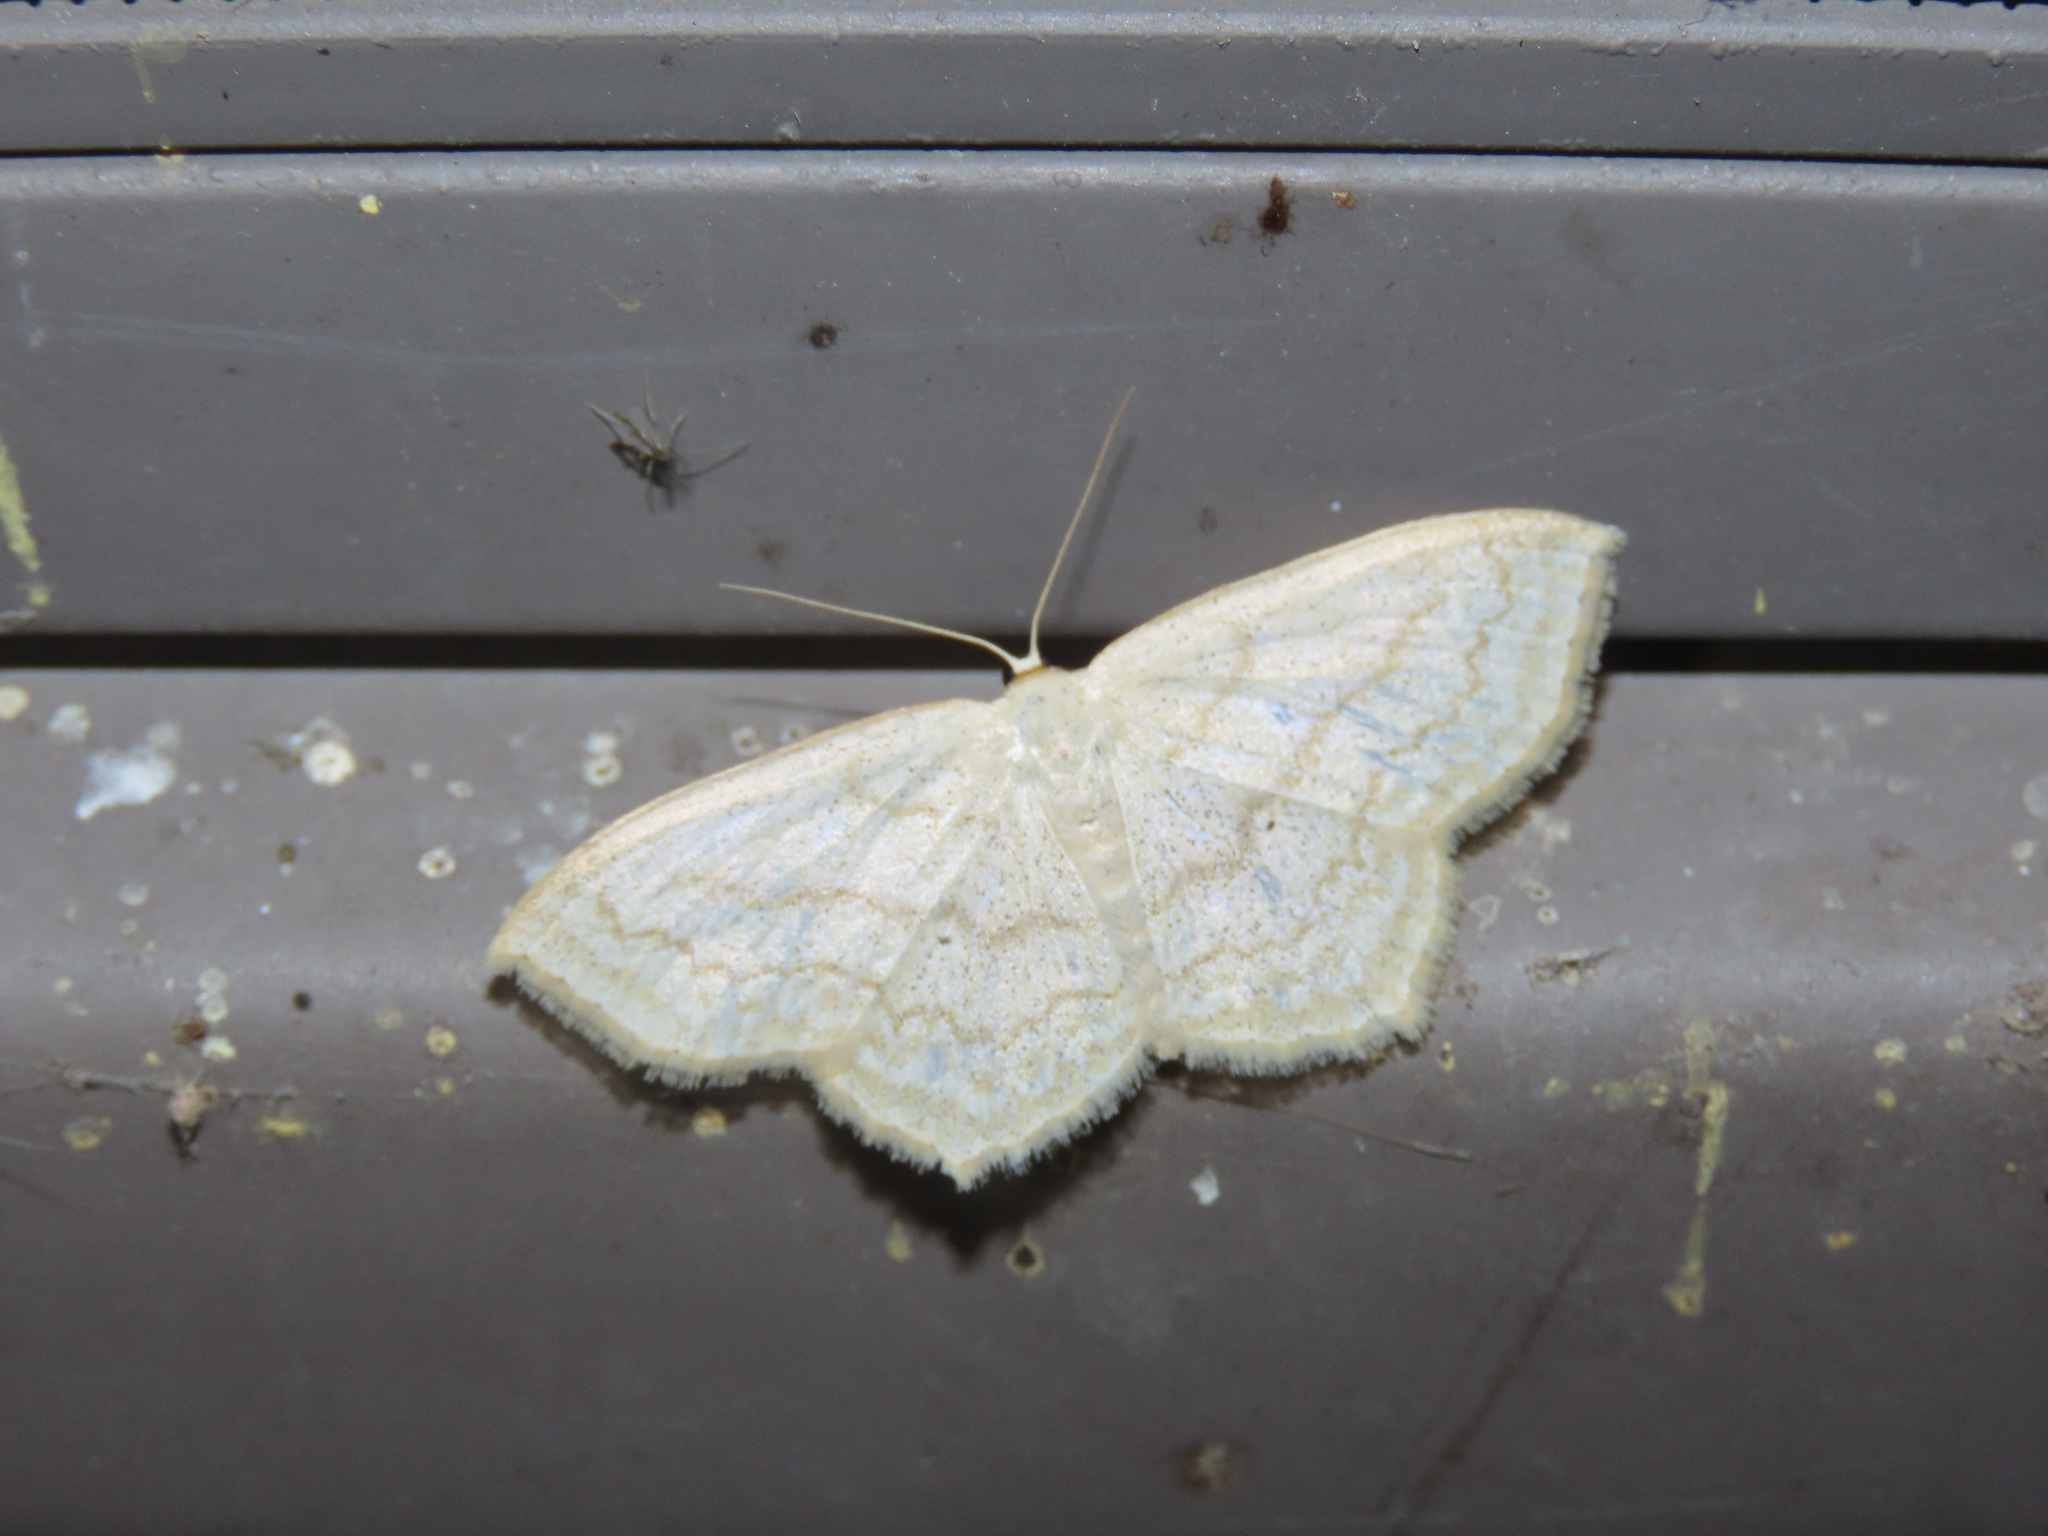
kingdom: Animalia
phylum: Arthropoda
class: Insecta
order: Lepidoptera
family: Geometridae
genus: Scopula
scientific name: Scopula limboundata
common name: Large lace border
